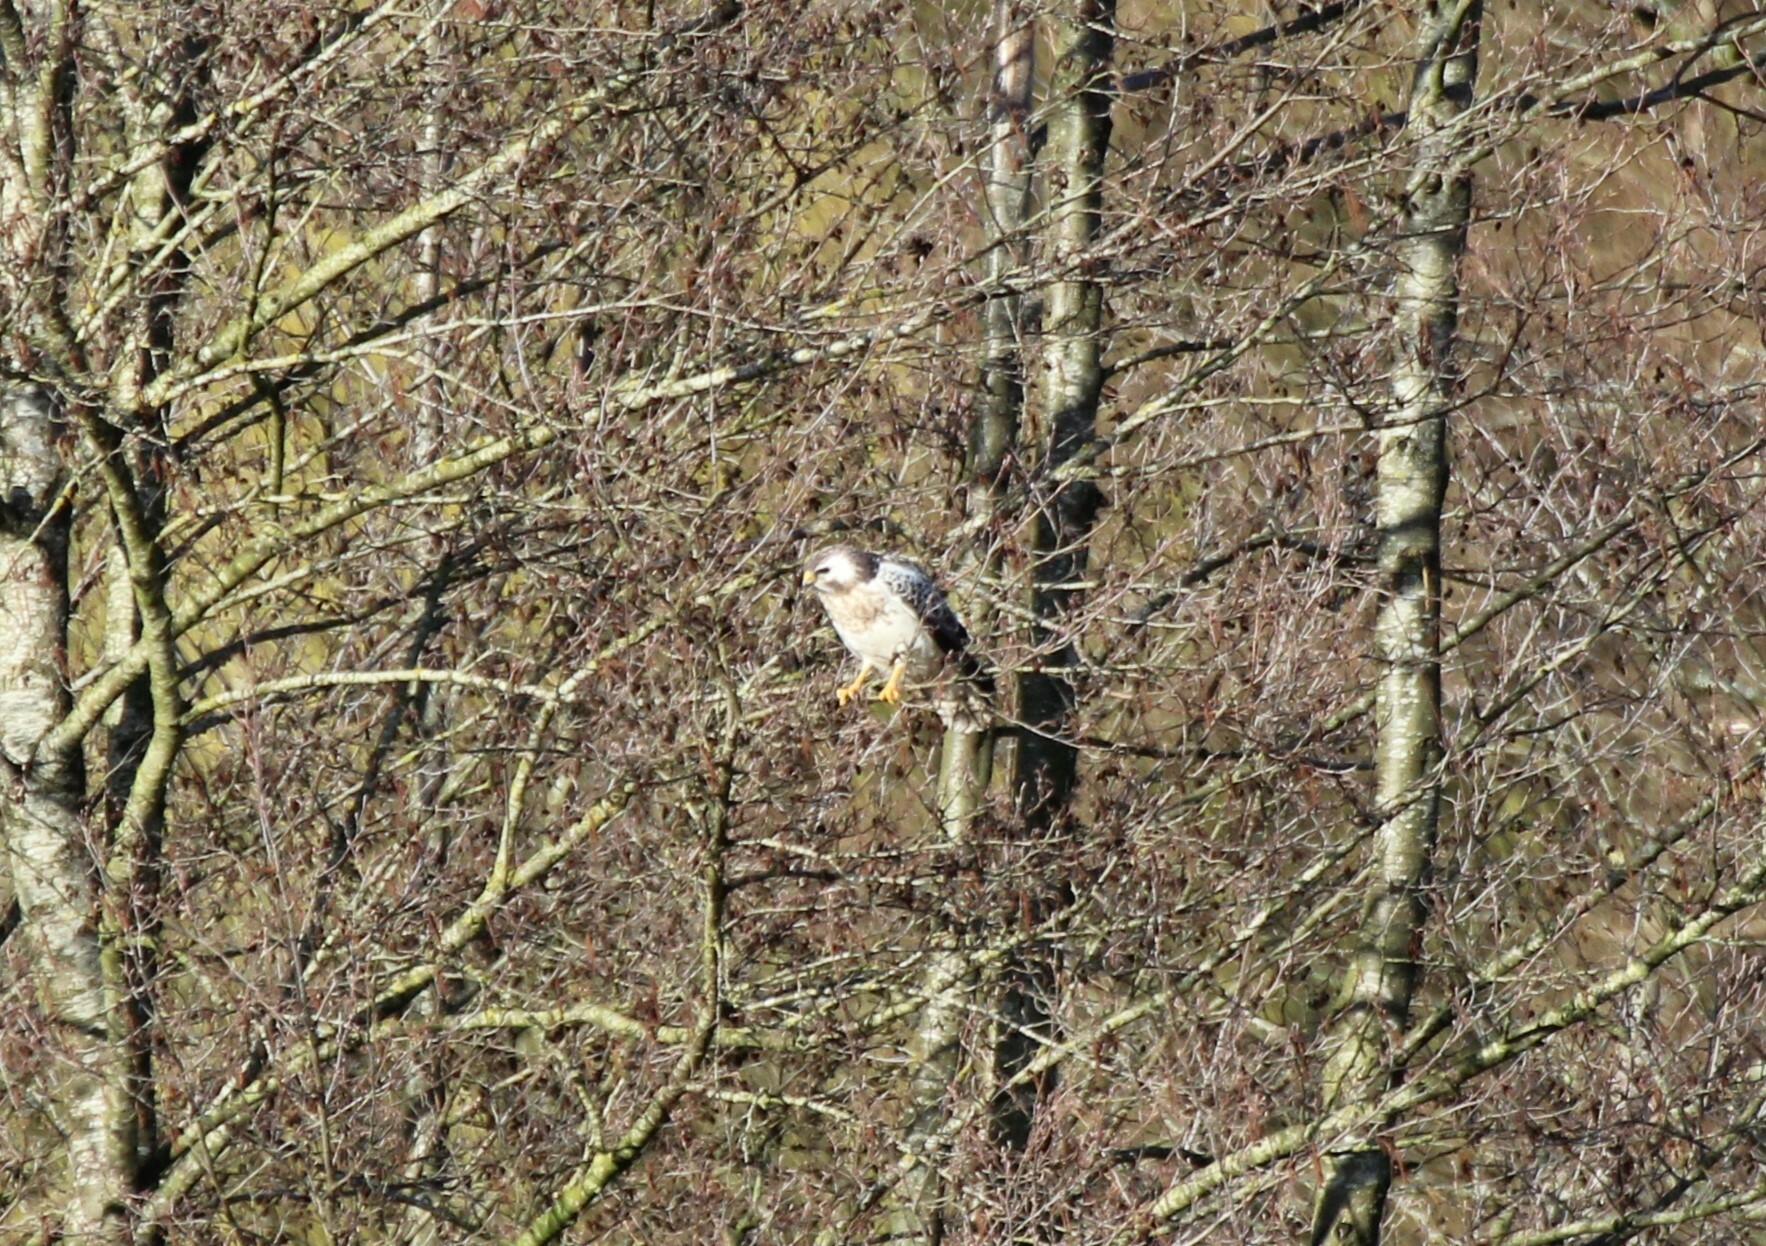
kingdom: Animalia
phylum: Chordata
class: Aves
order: Accipitriformes
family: Accipitridae
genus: Buteo
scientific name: Buteo buteo
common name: Common buzzard
